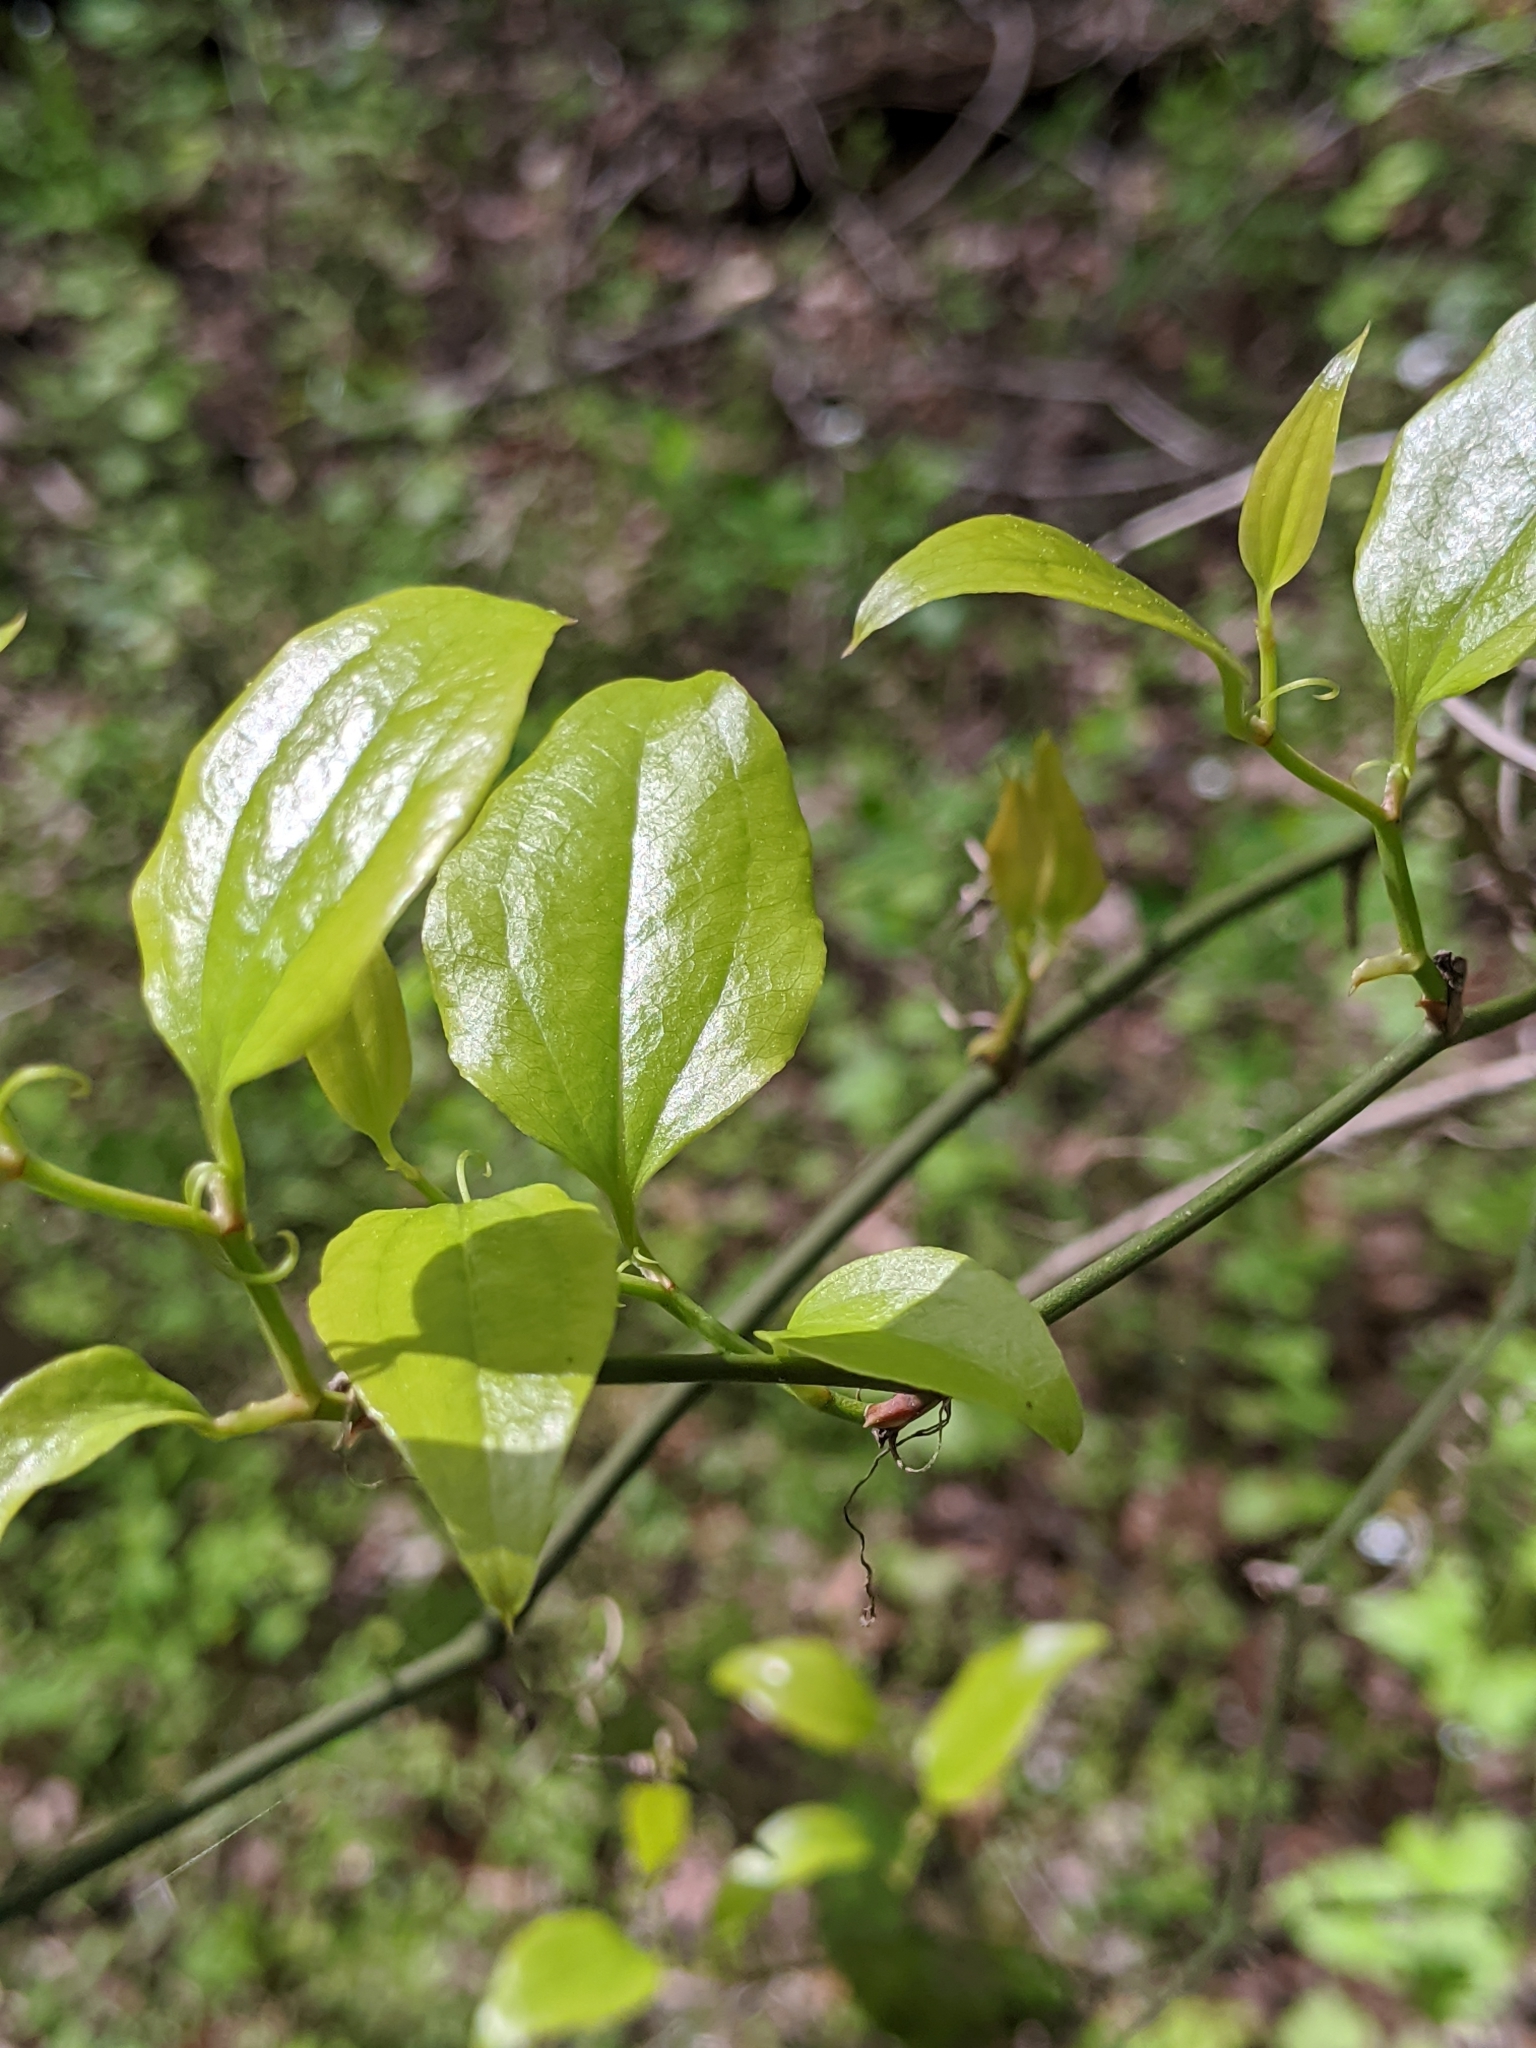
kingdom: Plantae
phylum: Tracheophyta
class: Liliopsida
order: Liliales
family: Smilacaceae
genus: Smilax
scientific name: Smilax rotundifolia
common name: Bullbriar
